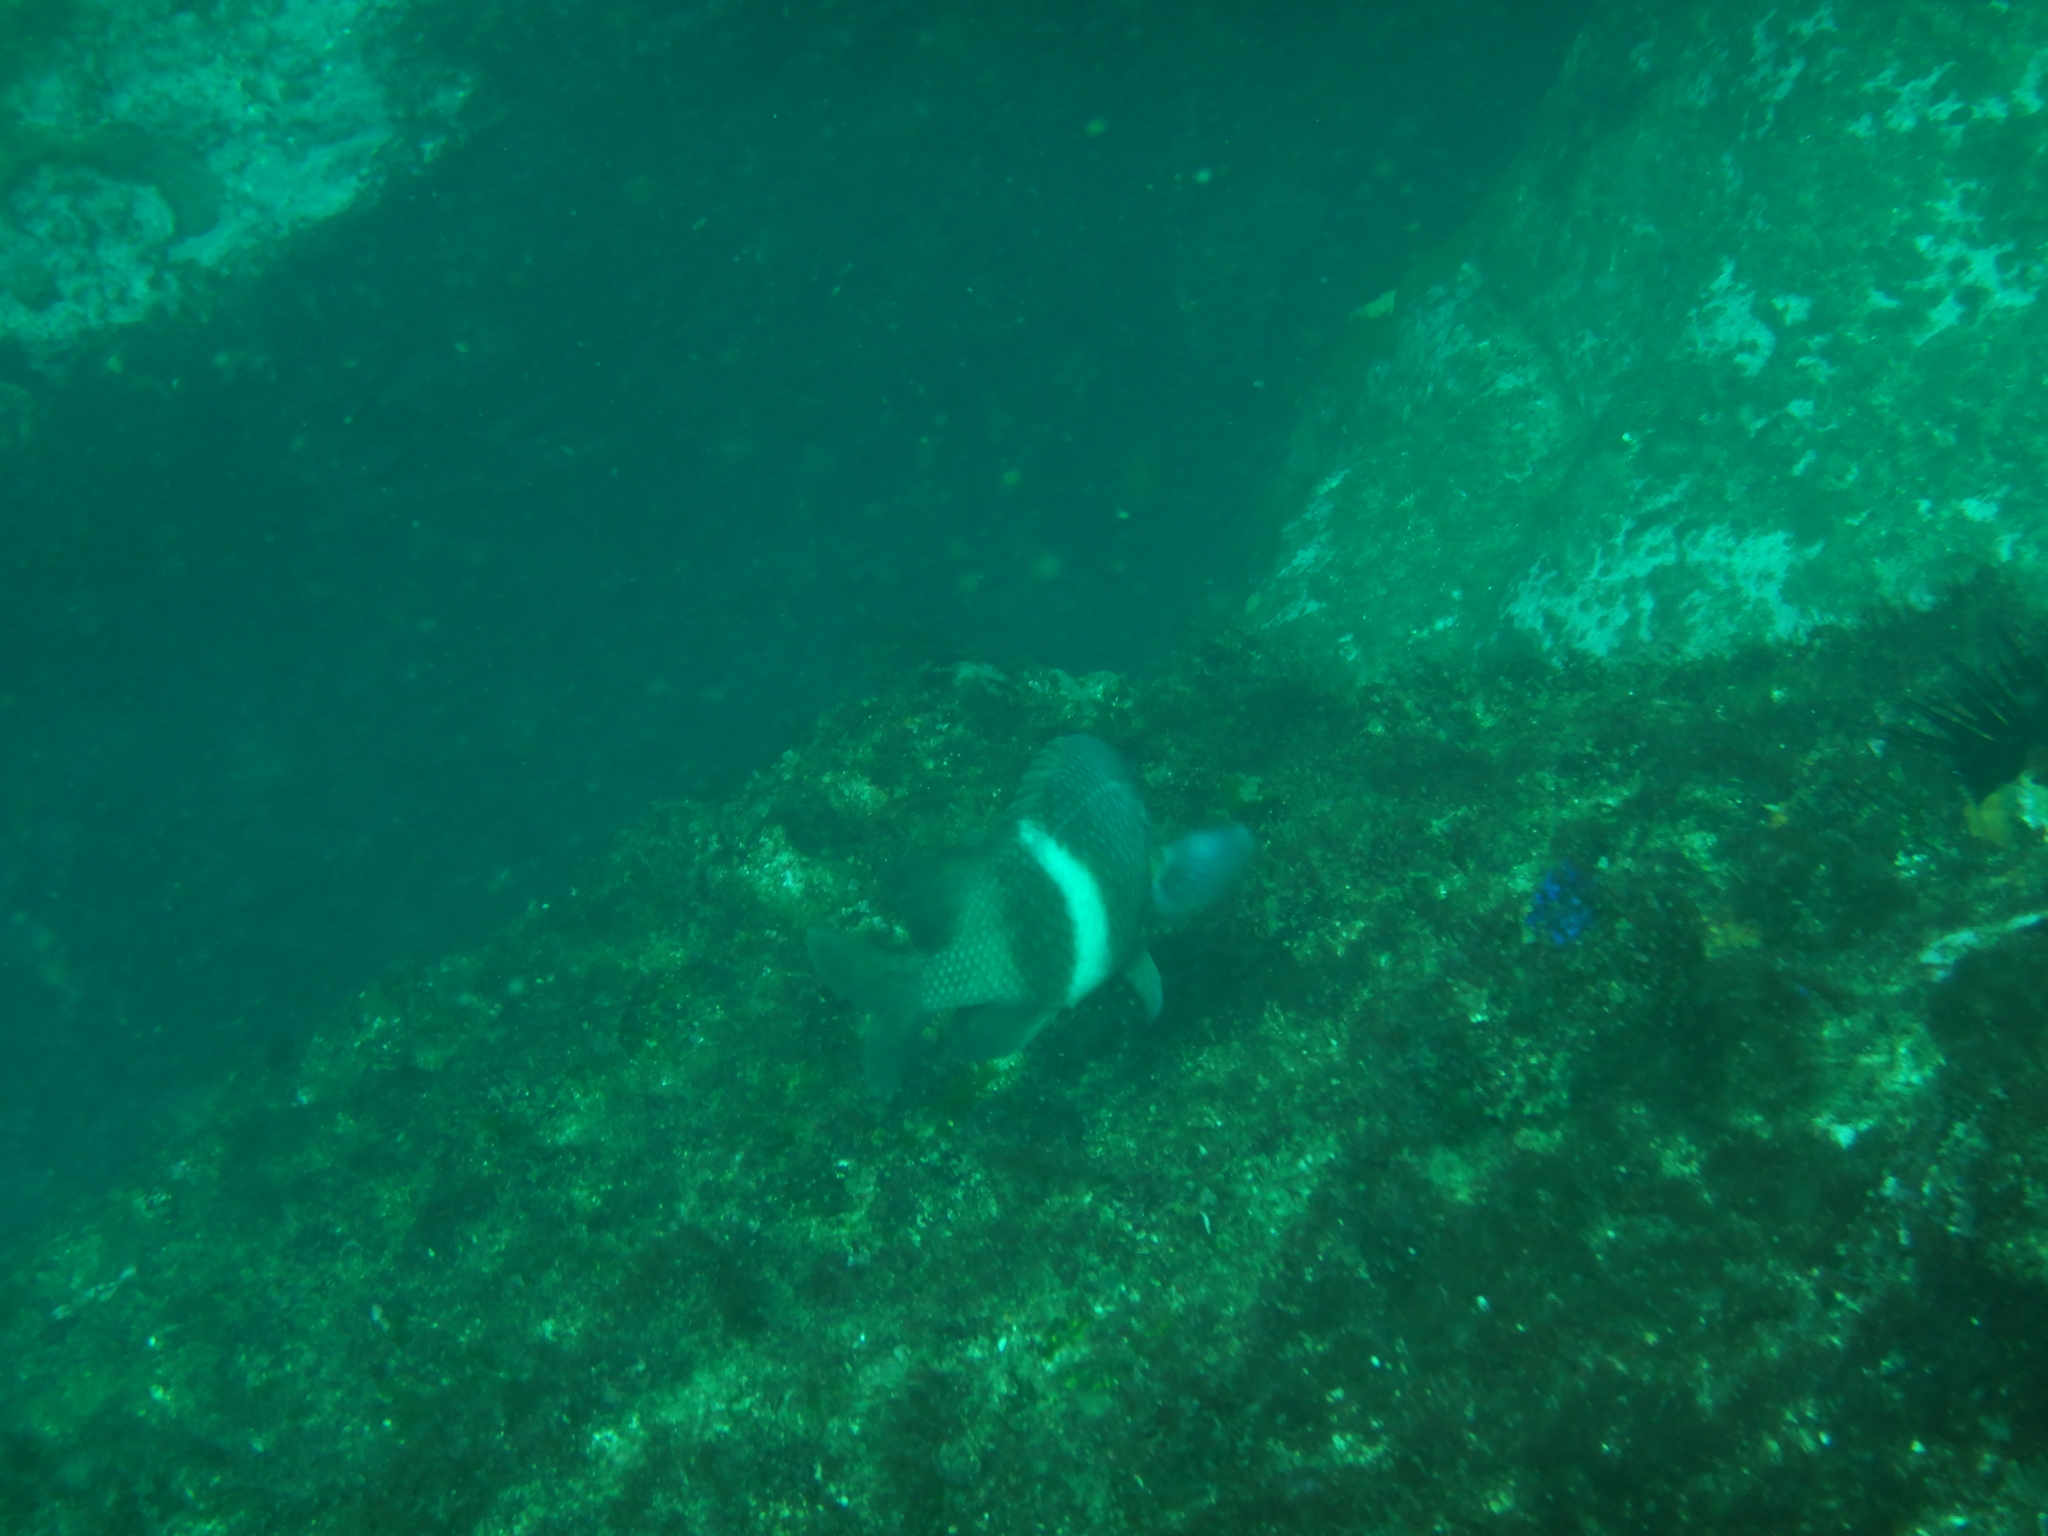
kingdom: Animalia
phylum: Chordata
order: Perciformes
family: Pomacentridae
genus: Parma
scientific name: Parma unifasciata
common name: Girdled parma
